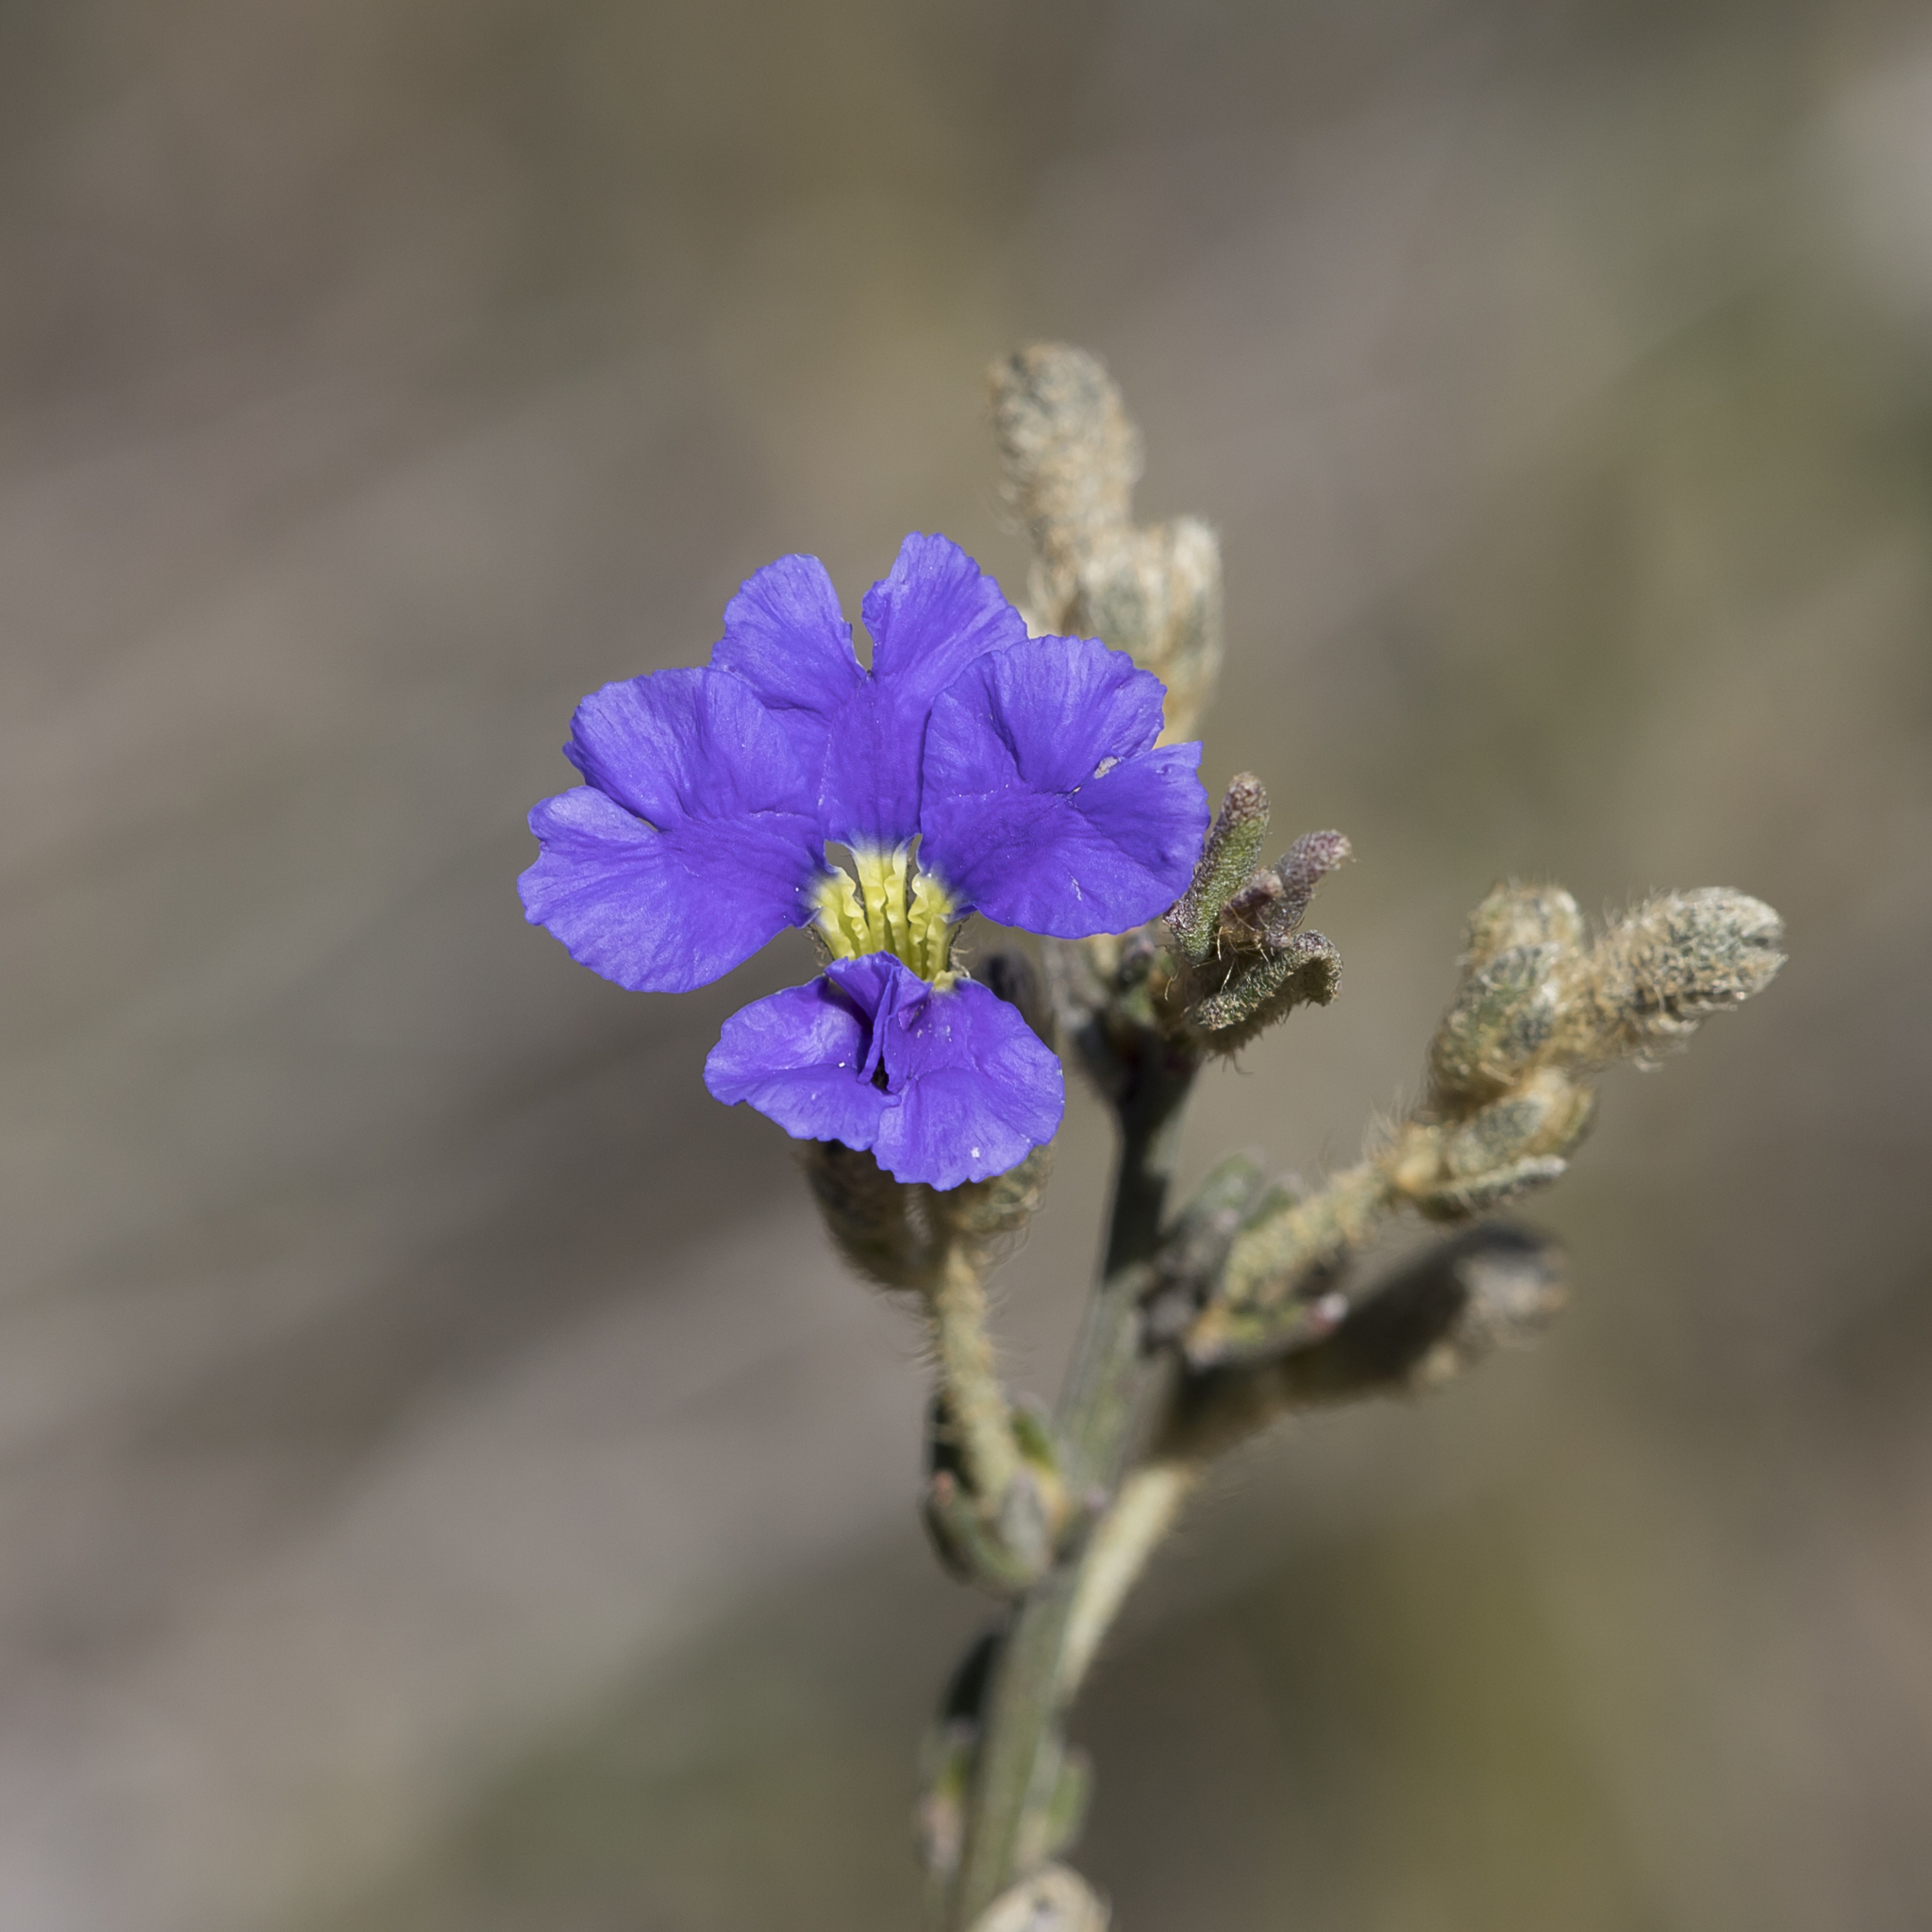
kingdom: Plantae
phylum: Tracheophyta
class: Magnoliopsida
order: Asterales
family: Goodeniaceae
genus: Dampiera
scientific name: Dampiera dysantha
